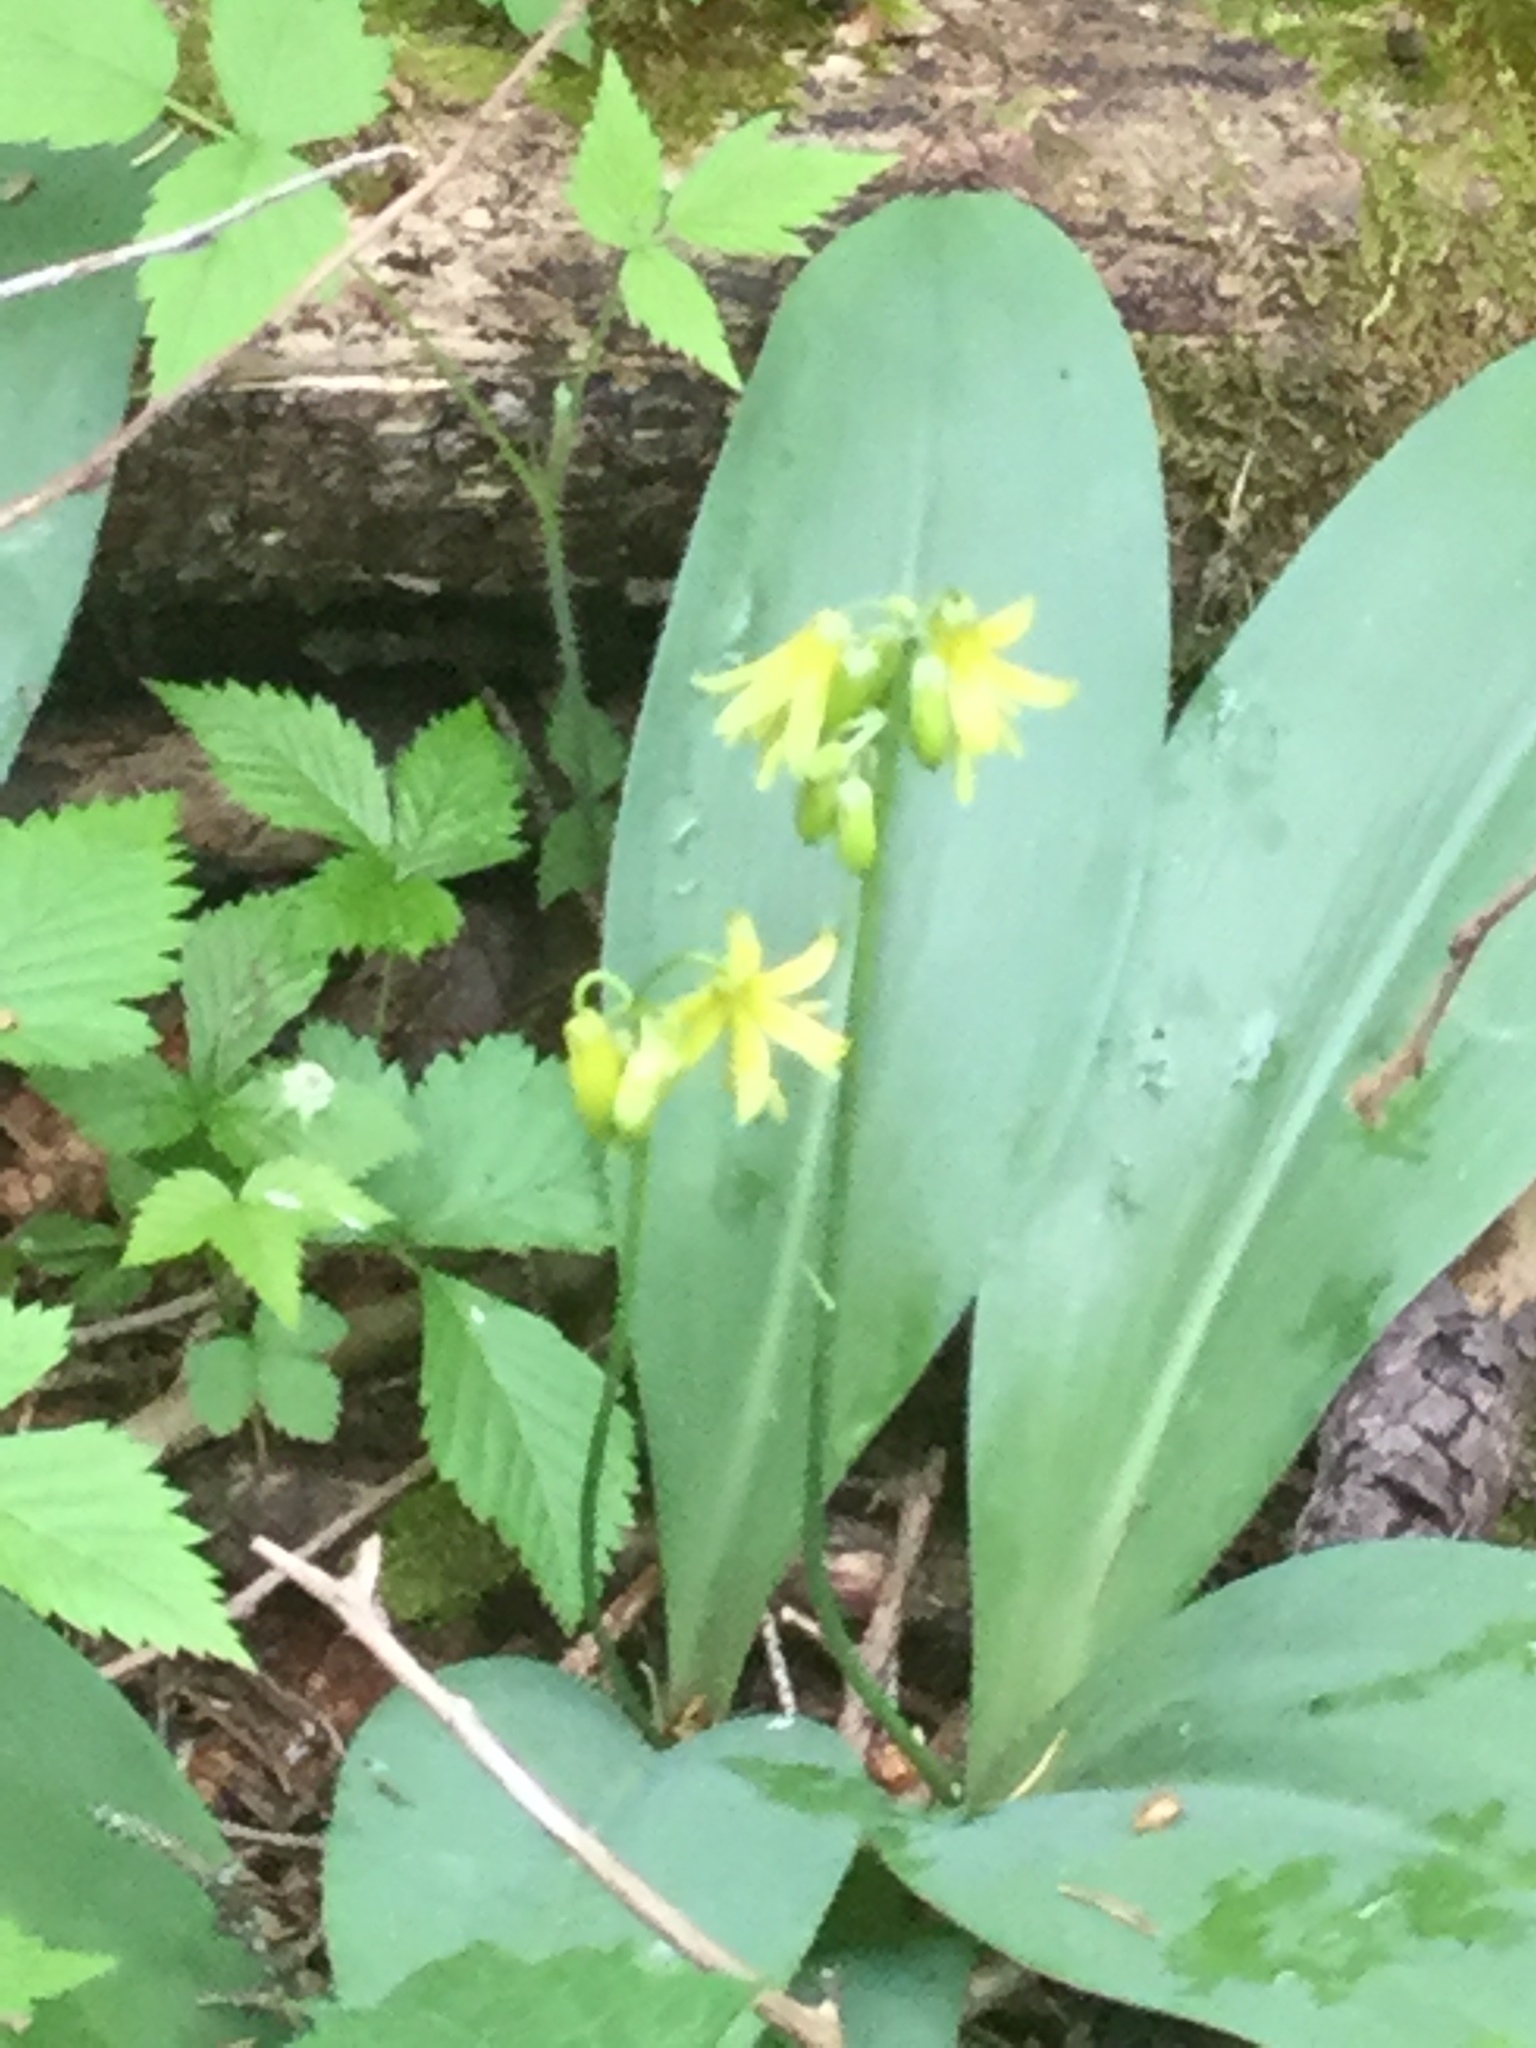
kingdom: Plantae
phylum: Tracheophyta
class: Liliopsida
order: Liliales
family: Liliaceae
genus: Clintonia
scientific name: Clintonia borealis
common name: Yellow clintonia
